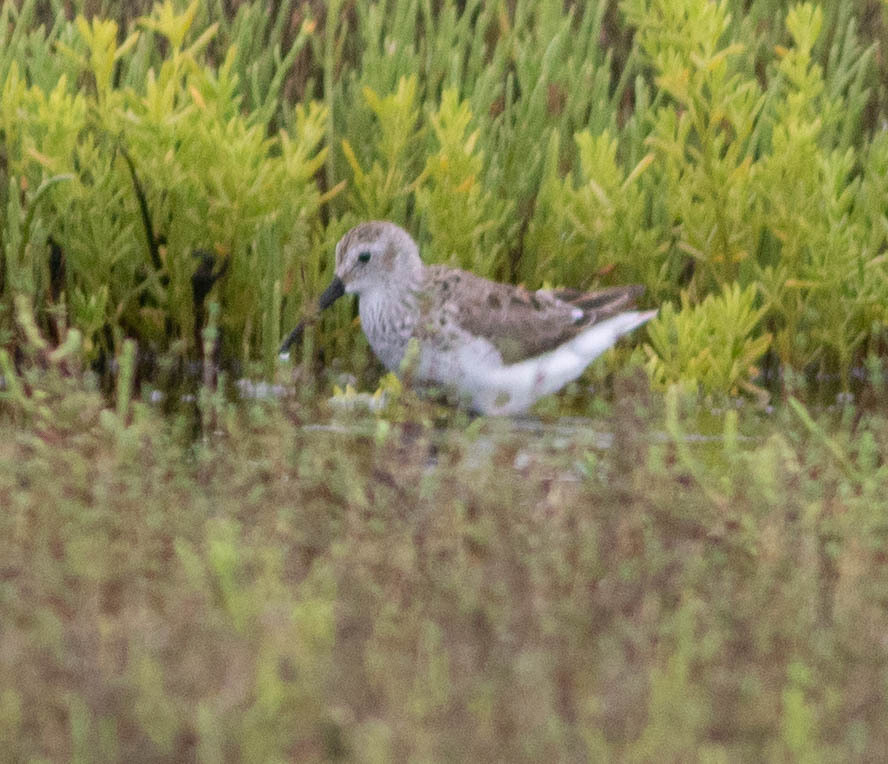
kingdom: Animalia
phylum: Chordata
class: Aves
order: Charadriiformes
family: Scolopacidae
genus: Calidris
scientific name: Calidris alpina
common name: Dunlin
